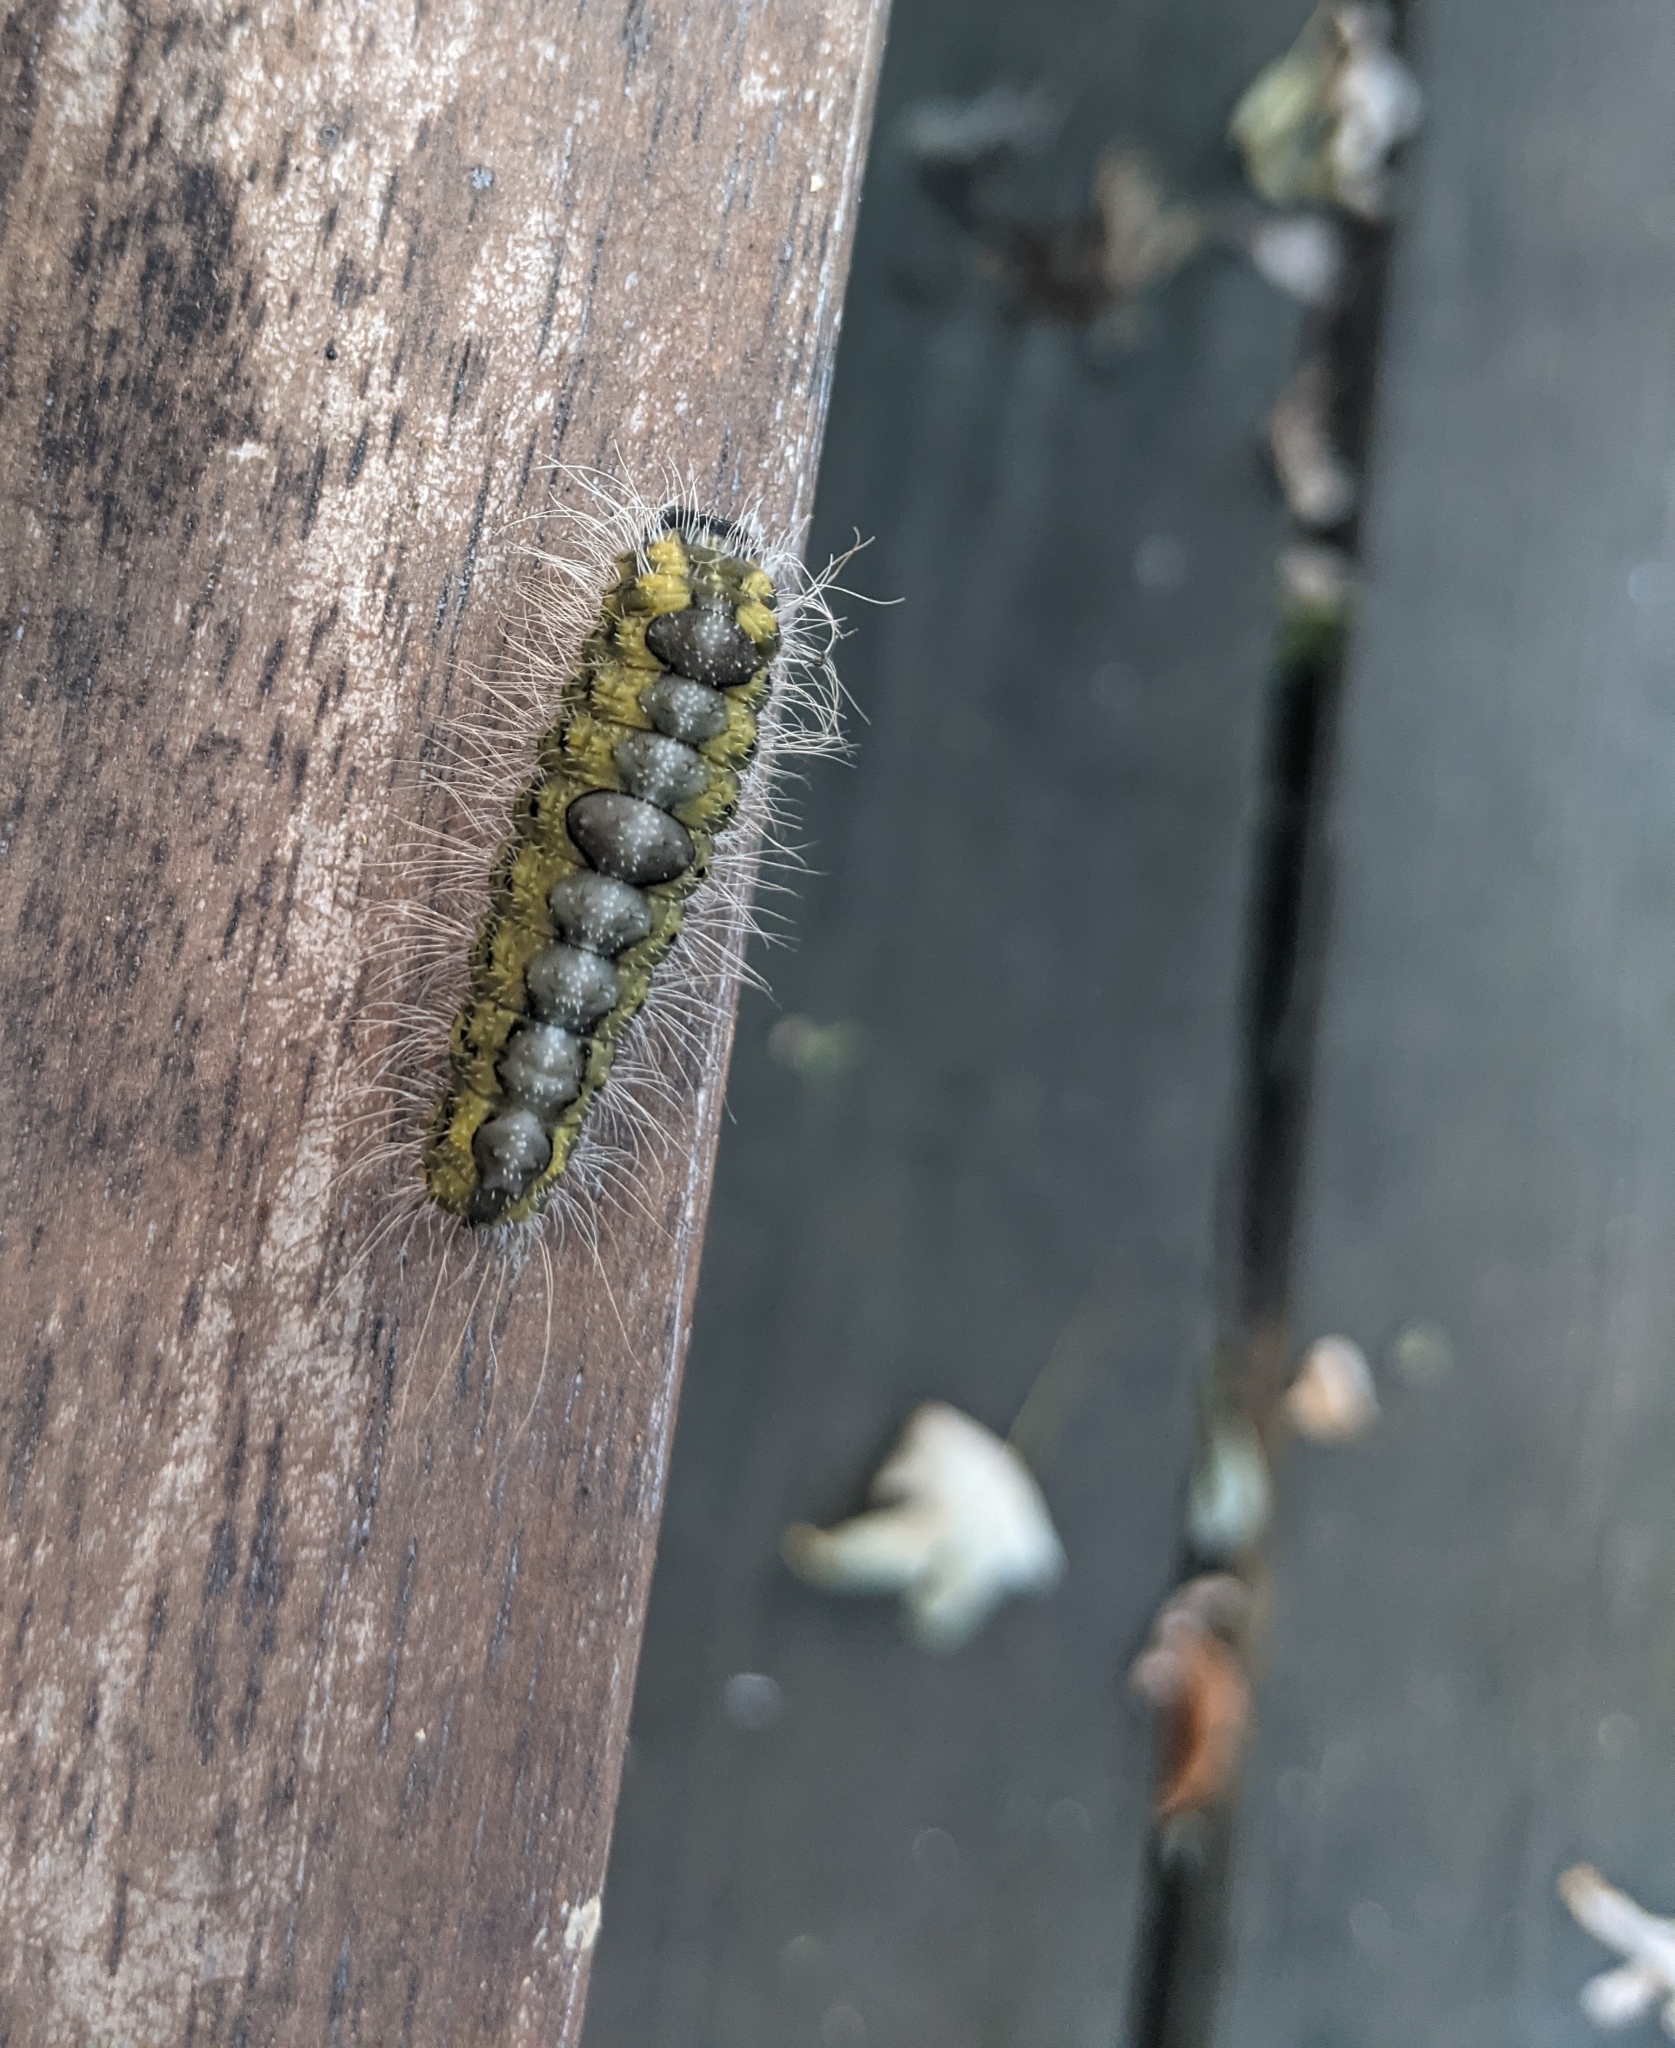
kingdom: Animalia
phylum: Arthropoda
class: Insecta
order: Lepidoptera
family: Noctuidae
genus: Acronicta
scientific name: Acronicta morula
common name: Ochre dagger
